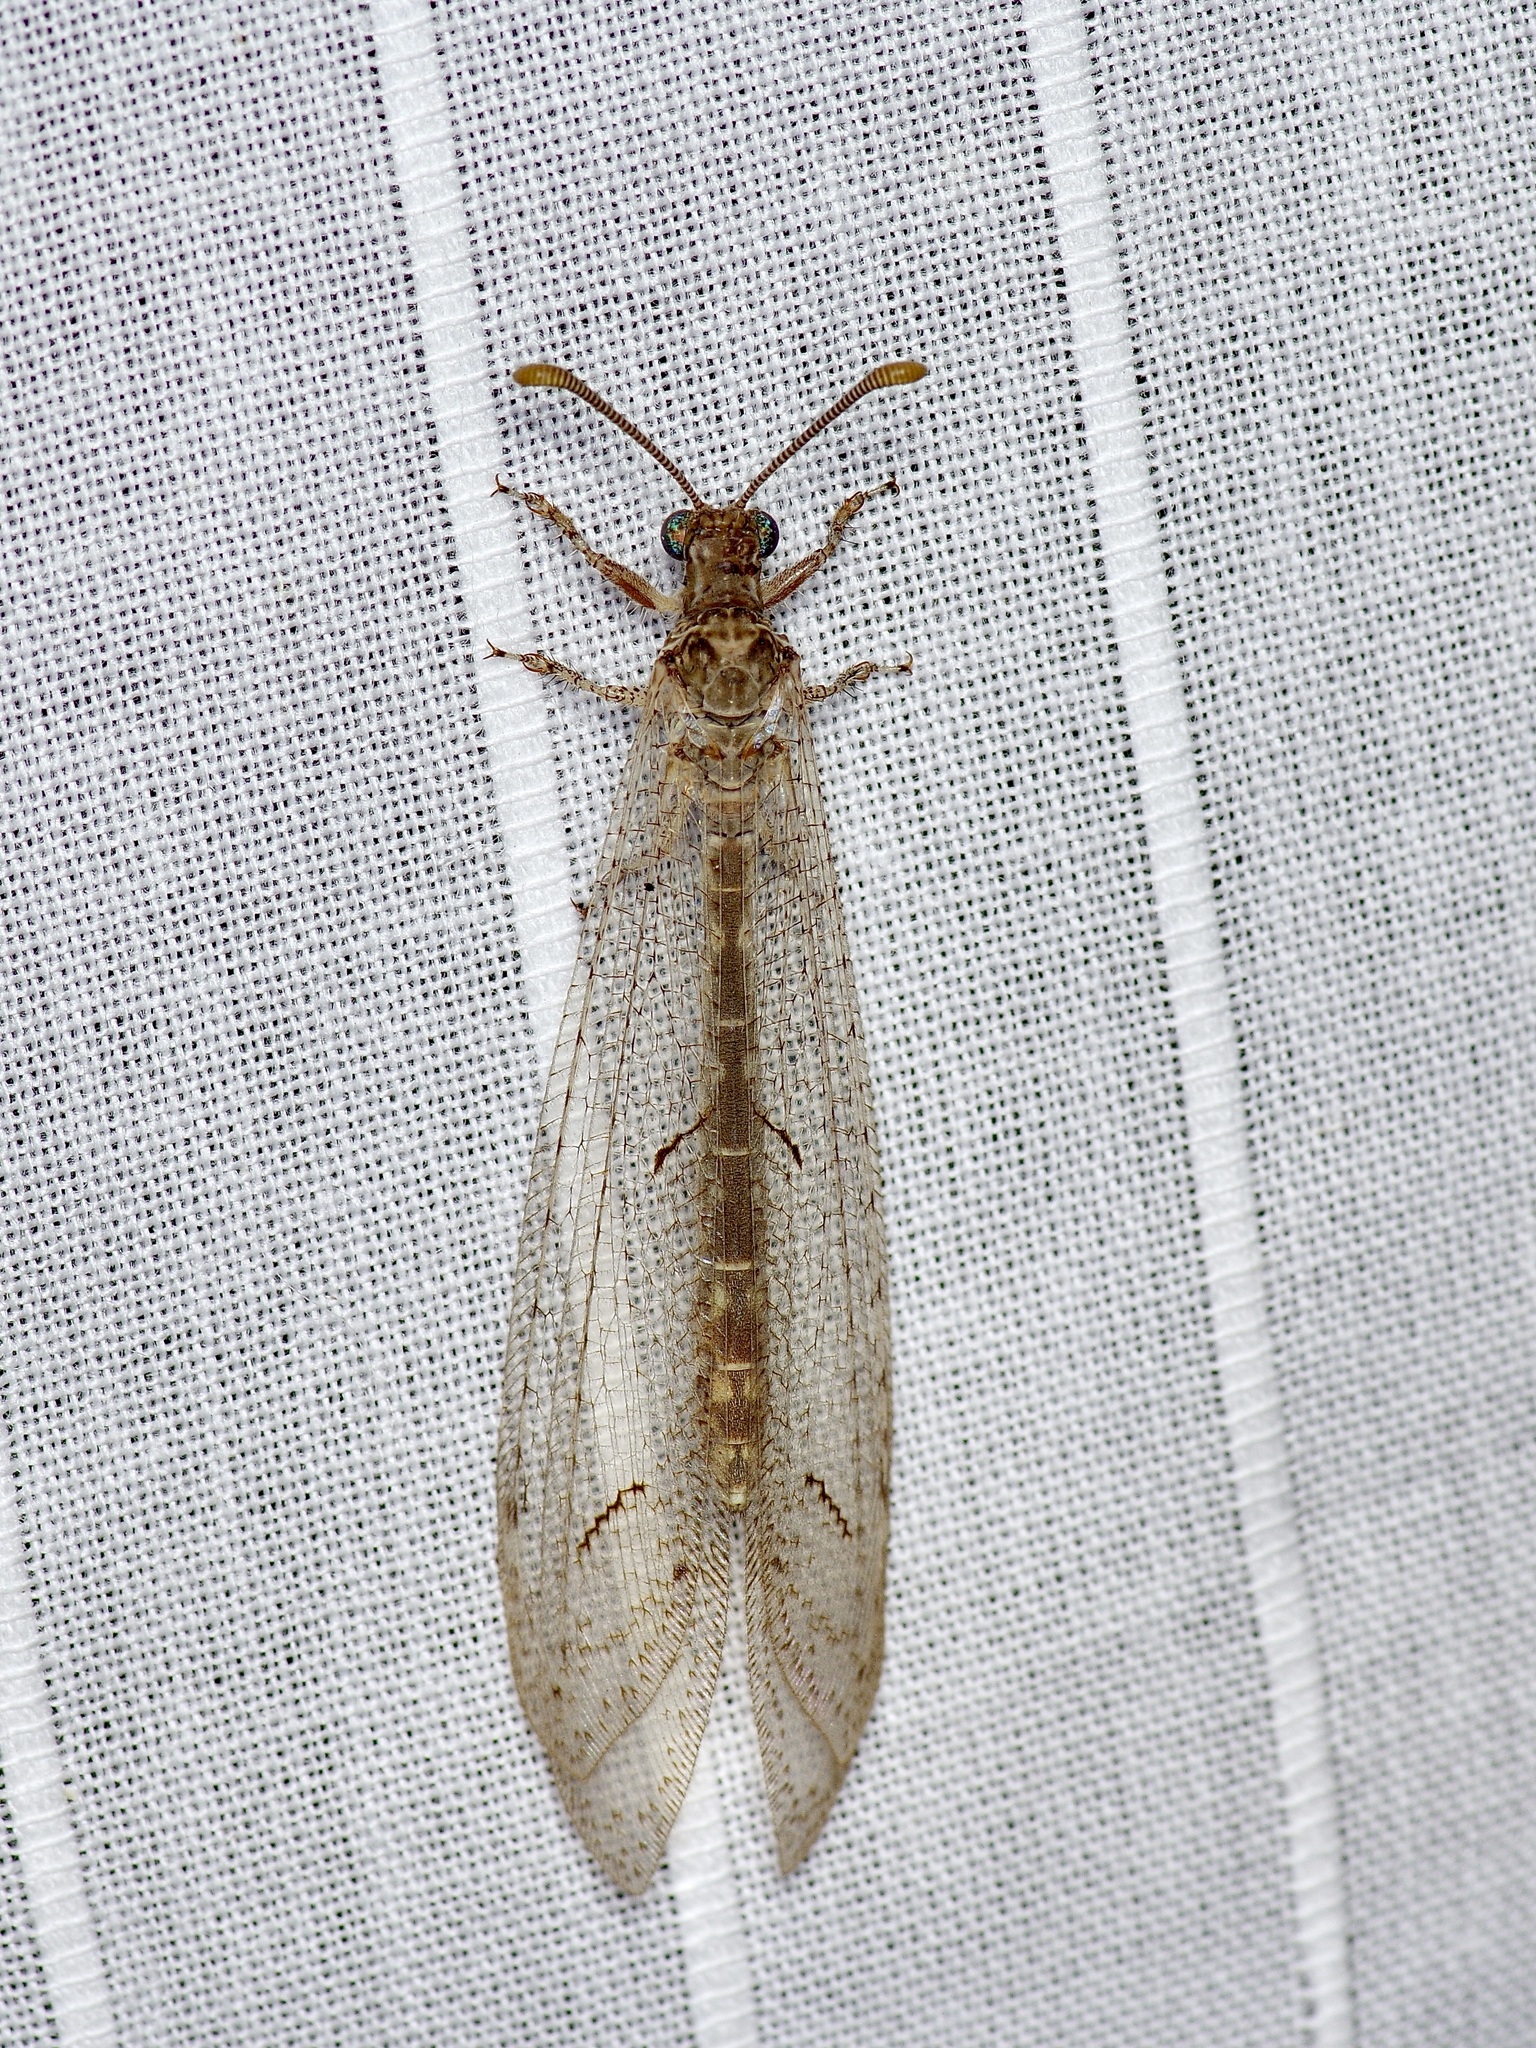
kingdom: Animalia
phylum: Arthropoda
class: Insecta
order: Neuroptera
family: Myrmeleontidae
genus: Euptilon
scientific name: Euptilon ornatum
